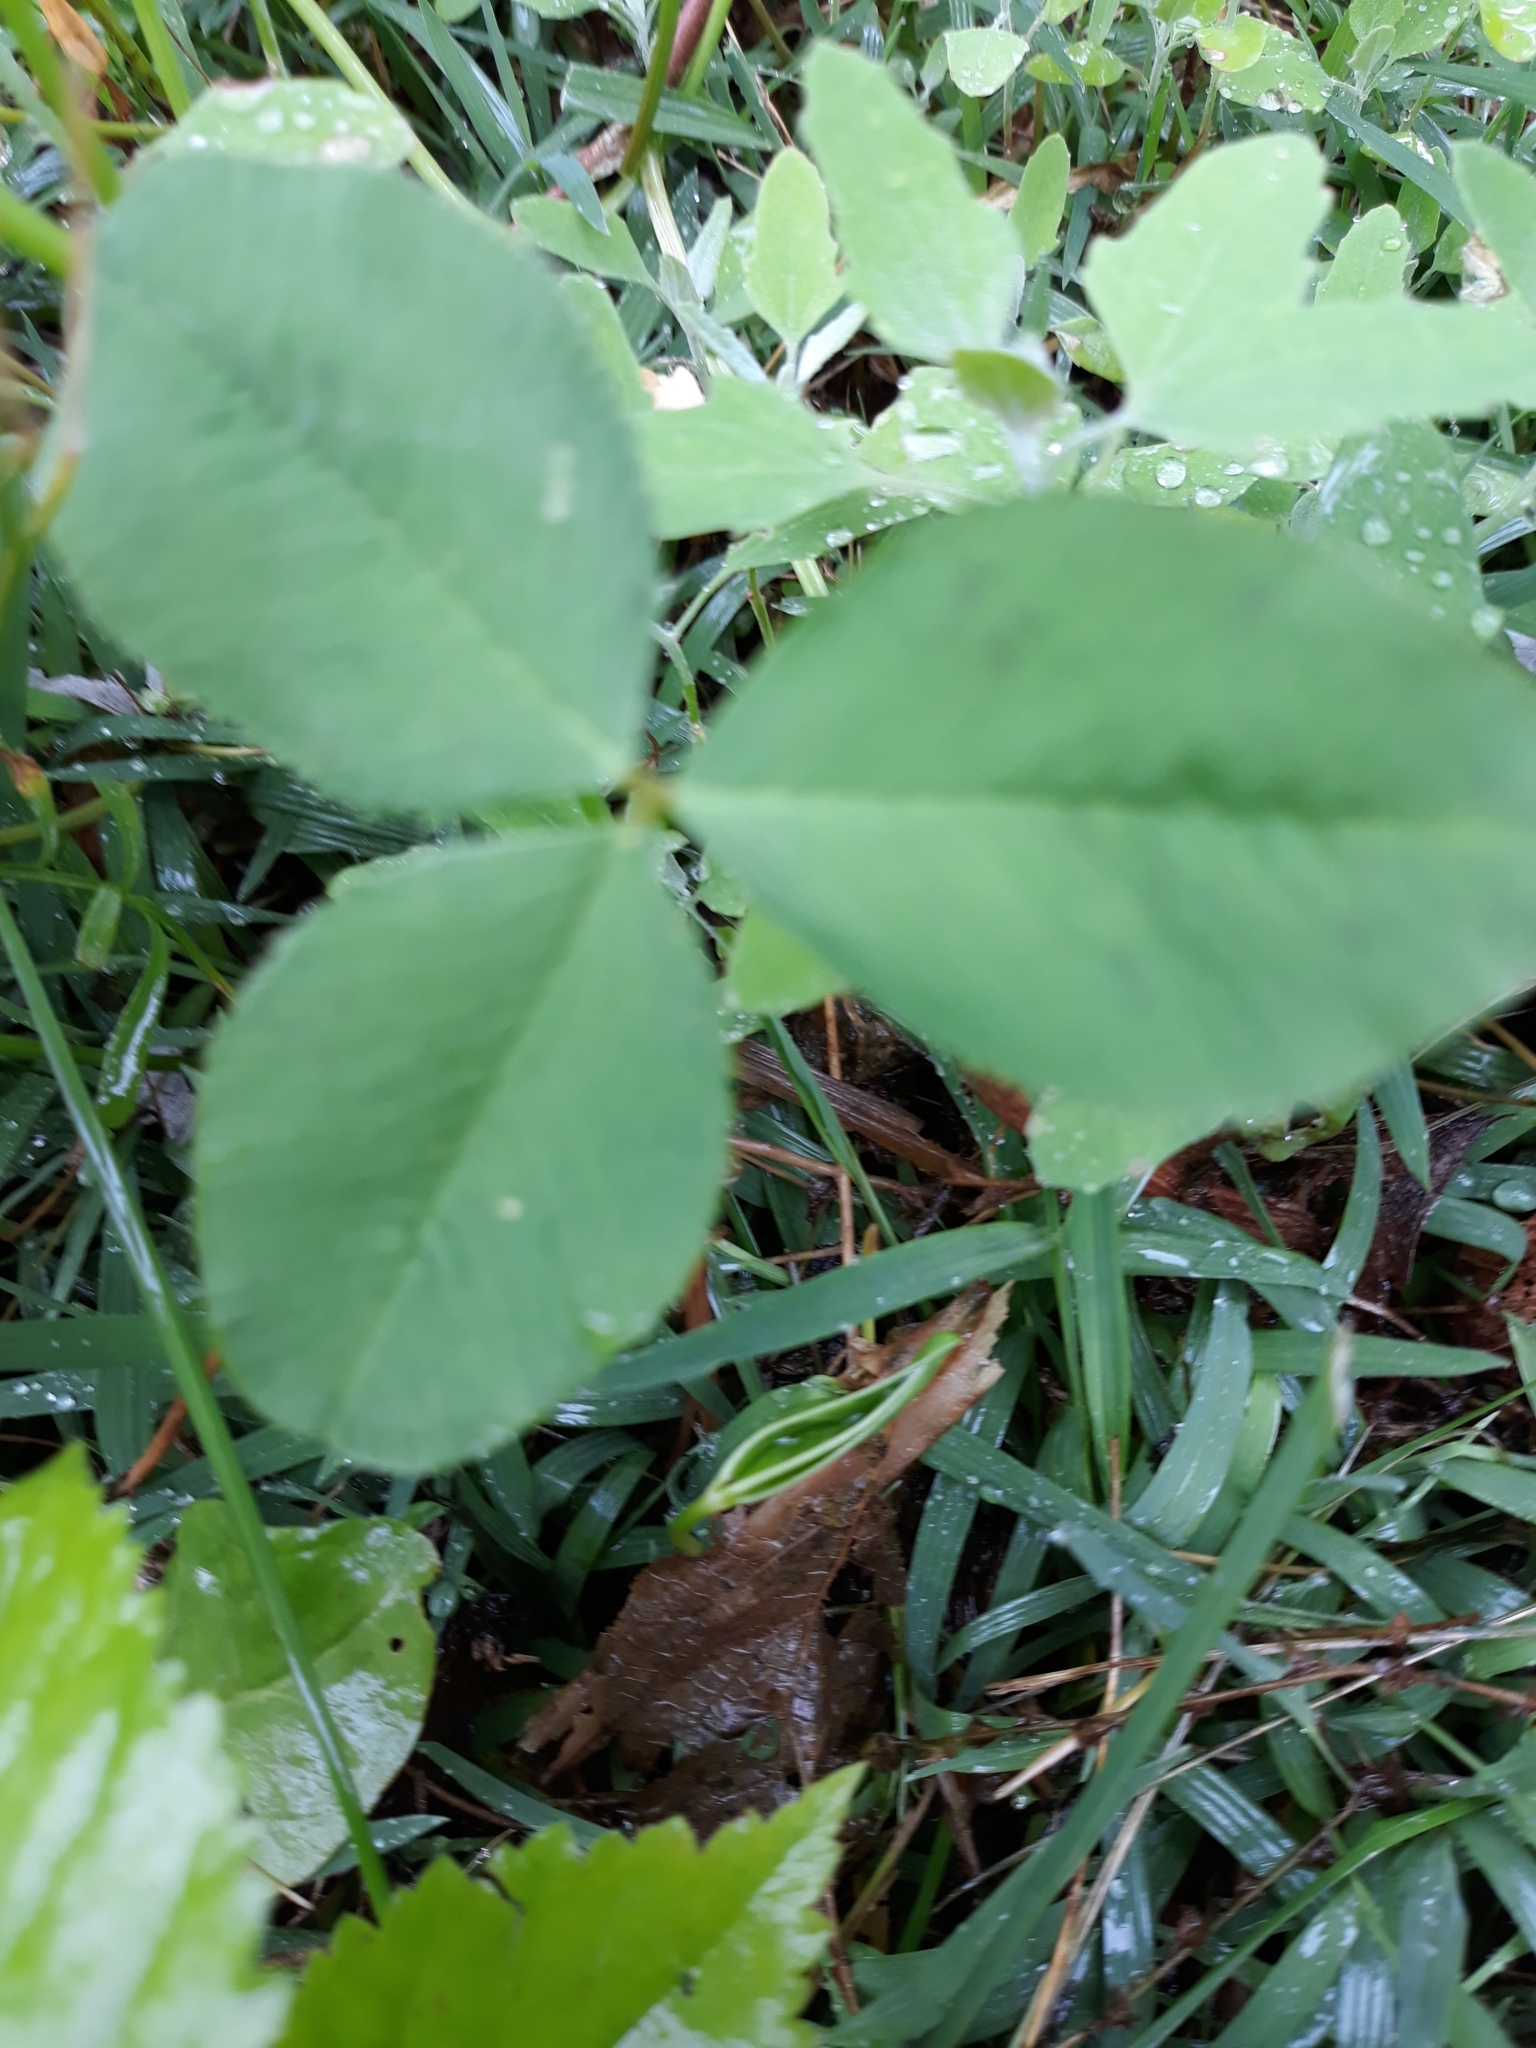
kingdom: Plantae
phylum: Tracheophyta
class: Magnoliopsida
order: Fabales
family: Fabaceae
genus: Trifolium
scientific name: Trifolium repens
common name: White clover
